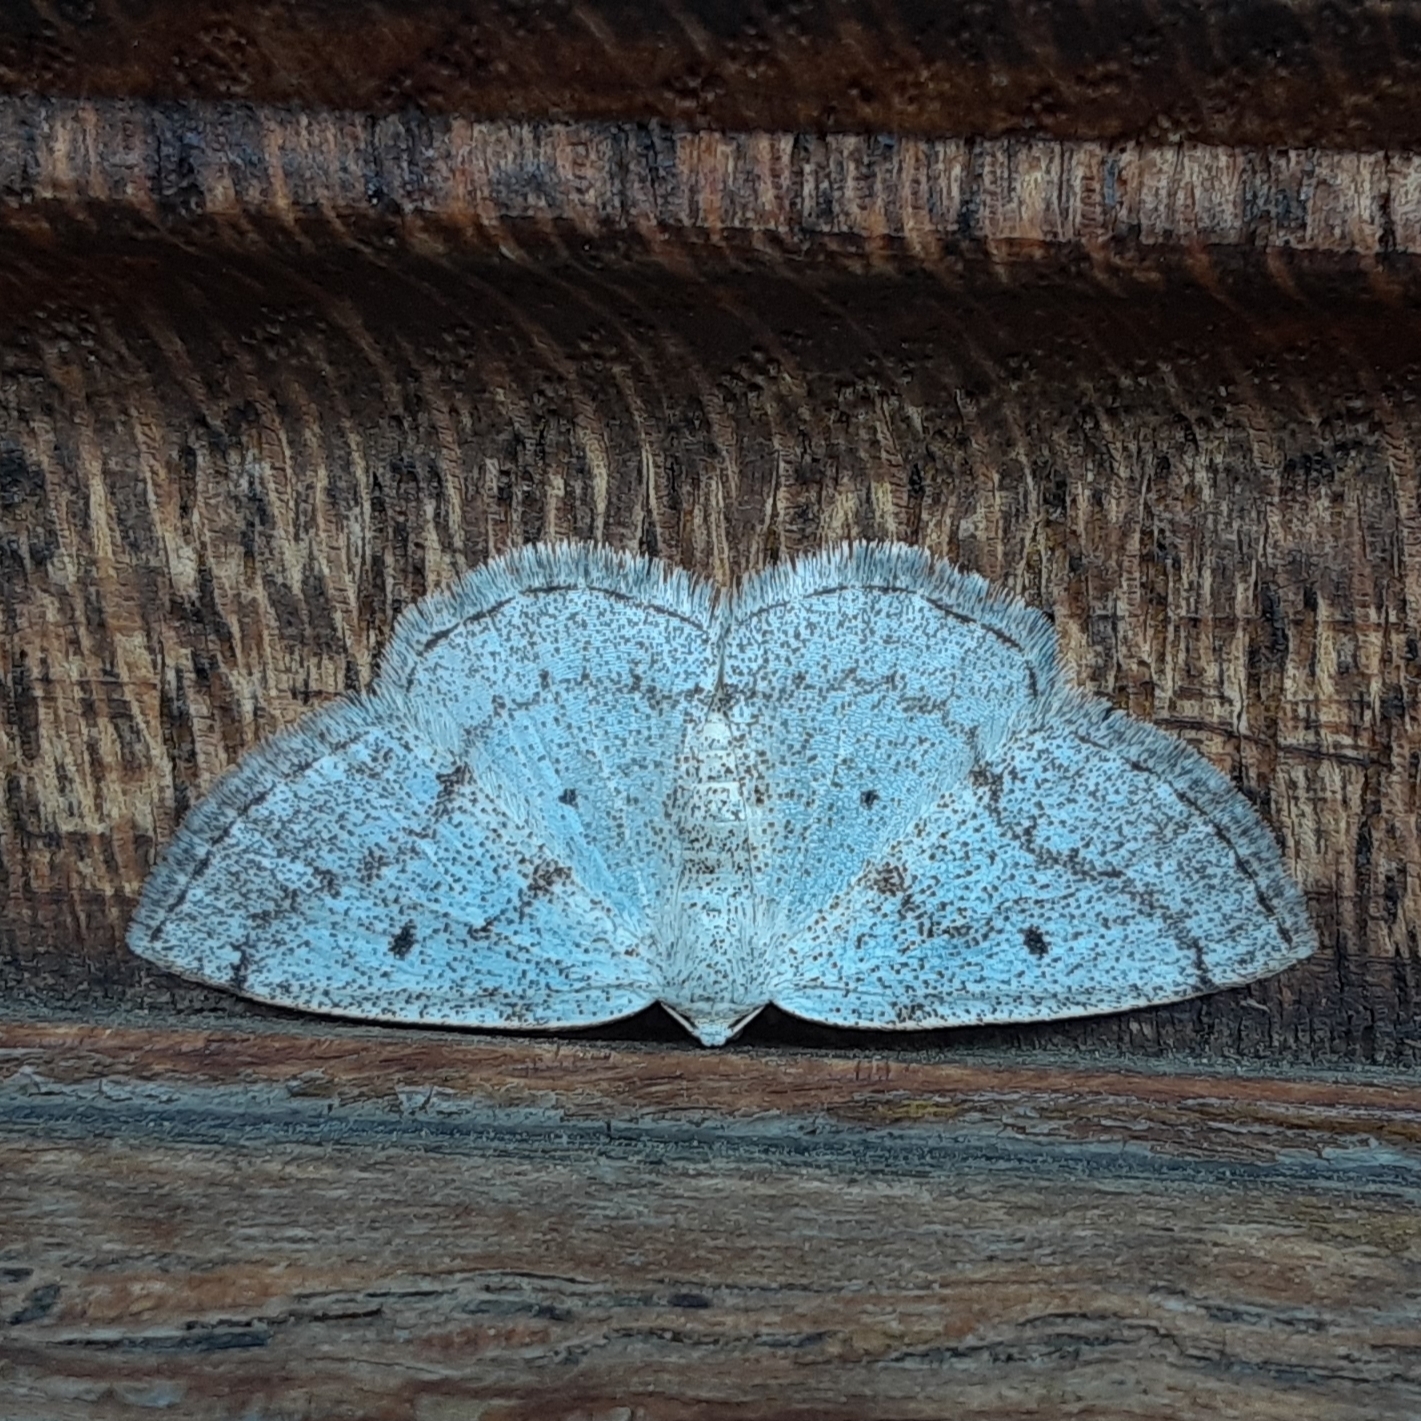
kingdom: Animalia
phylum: Arthropoda
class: Insecta
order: Lepidoptera
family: Geometridae
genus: Lomographa
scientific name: Lomographa glomeraria
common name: Gray spring moth
